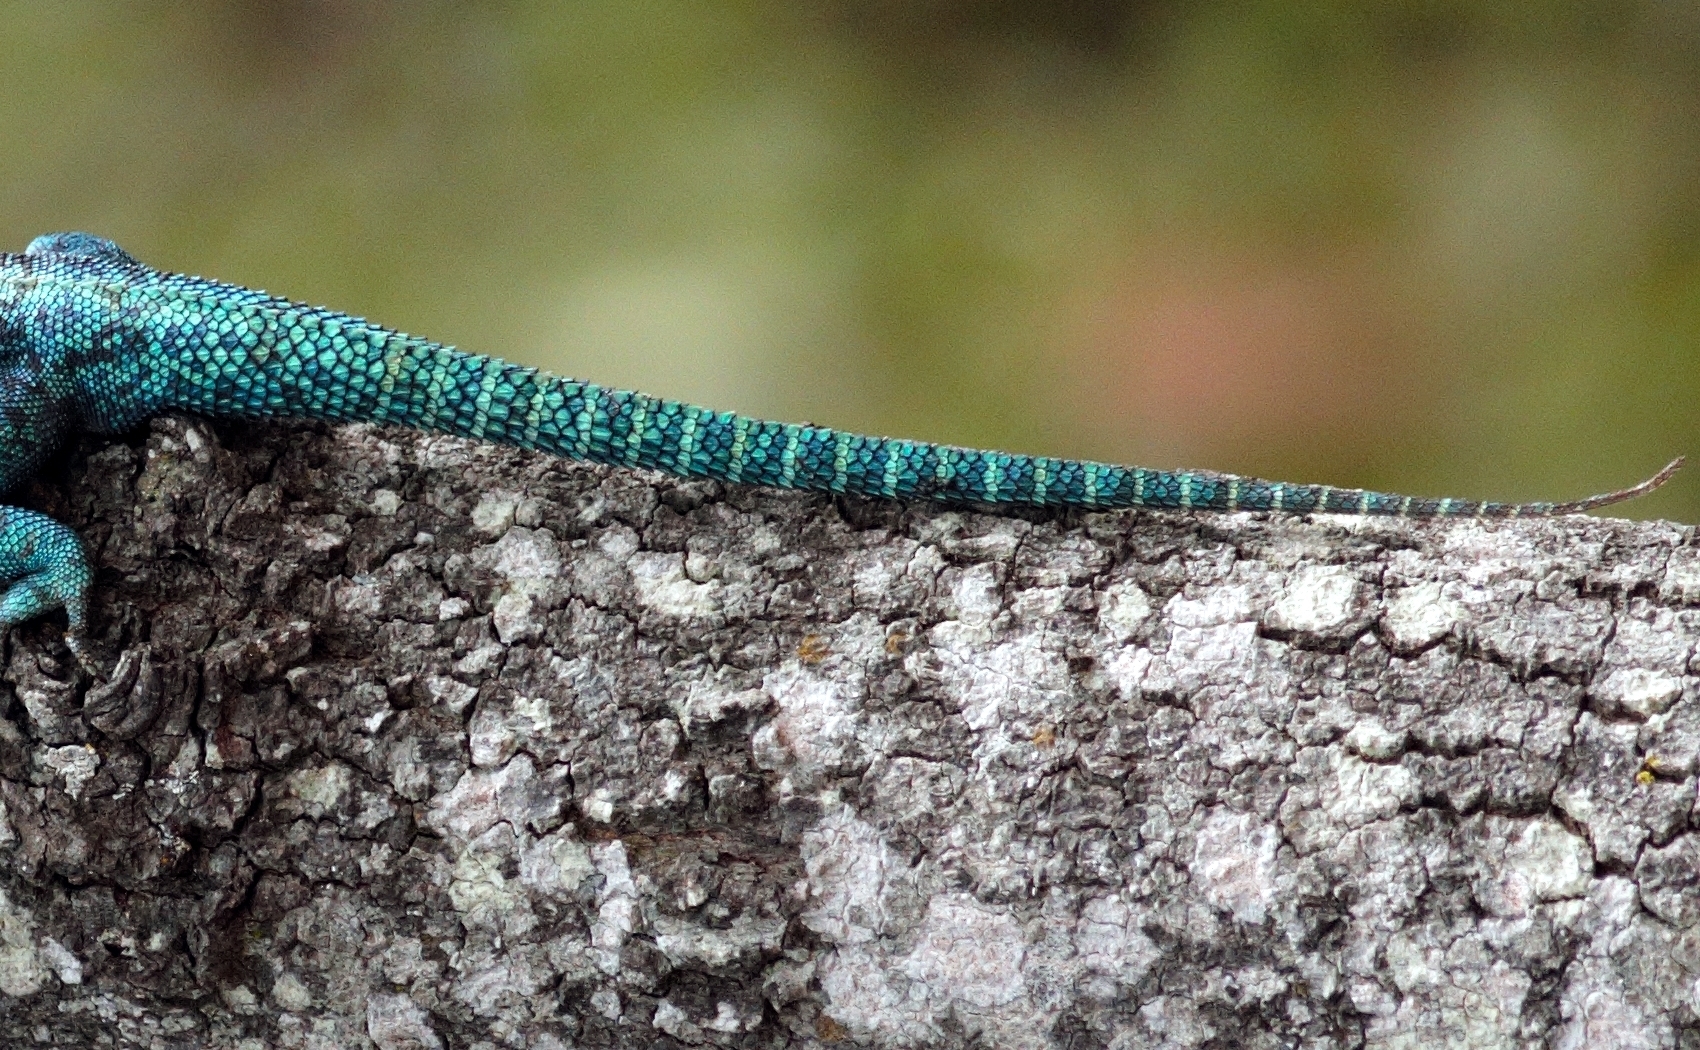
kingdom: Animalia
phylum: Chordata
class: Squamata
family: Agamidae
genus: Agama
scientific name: Agama kirkii
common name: Kirk's rock agama
